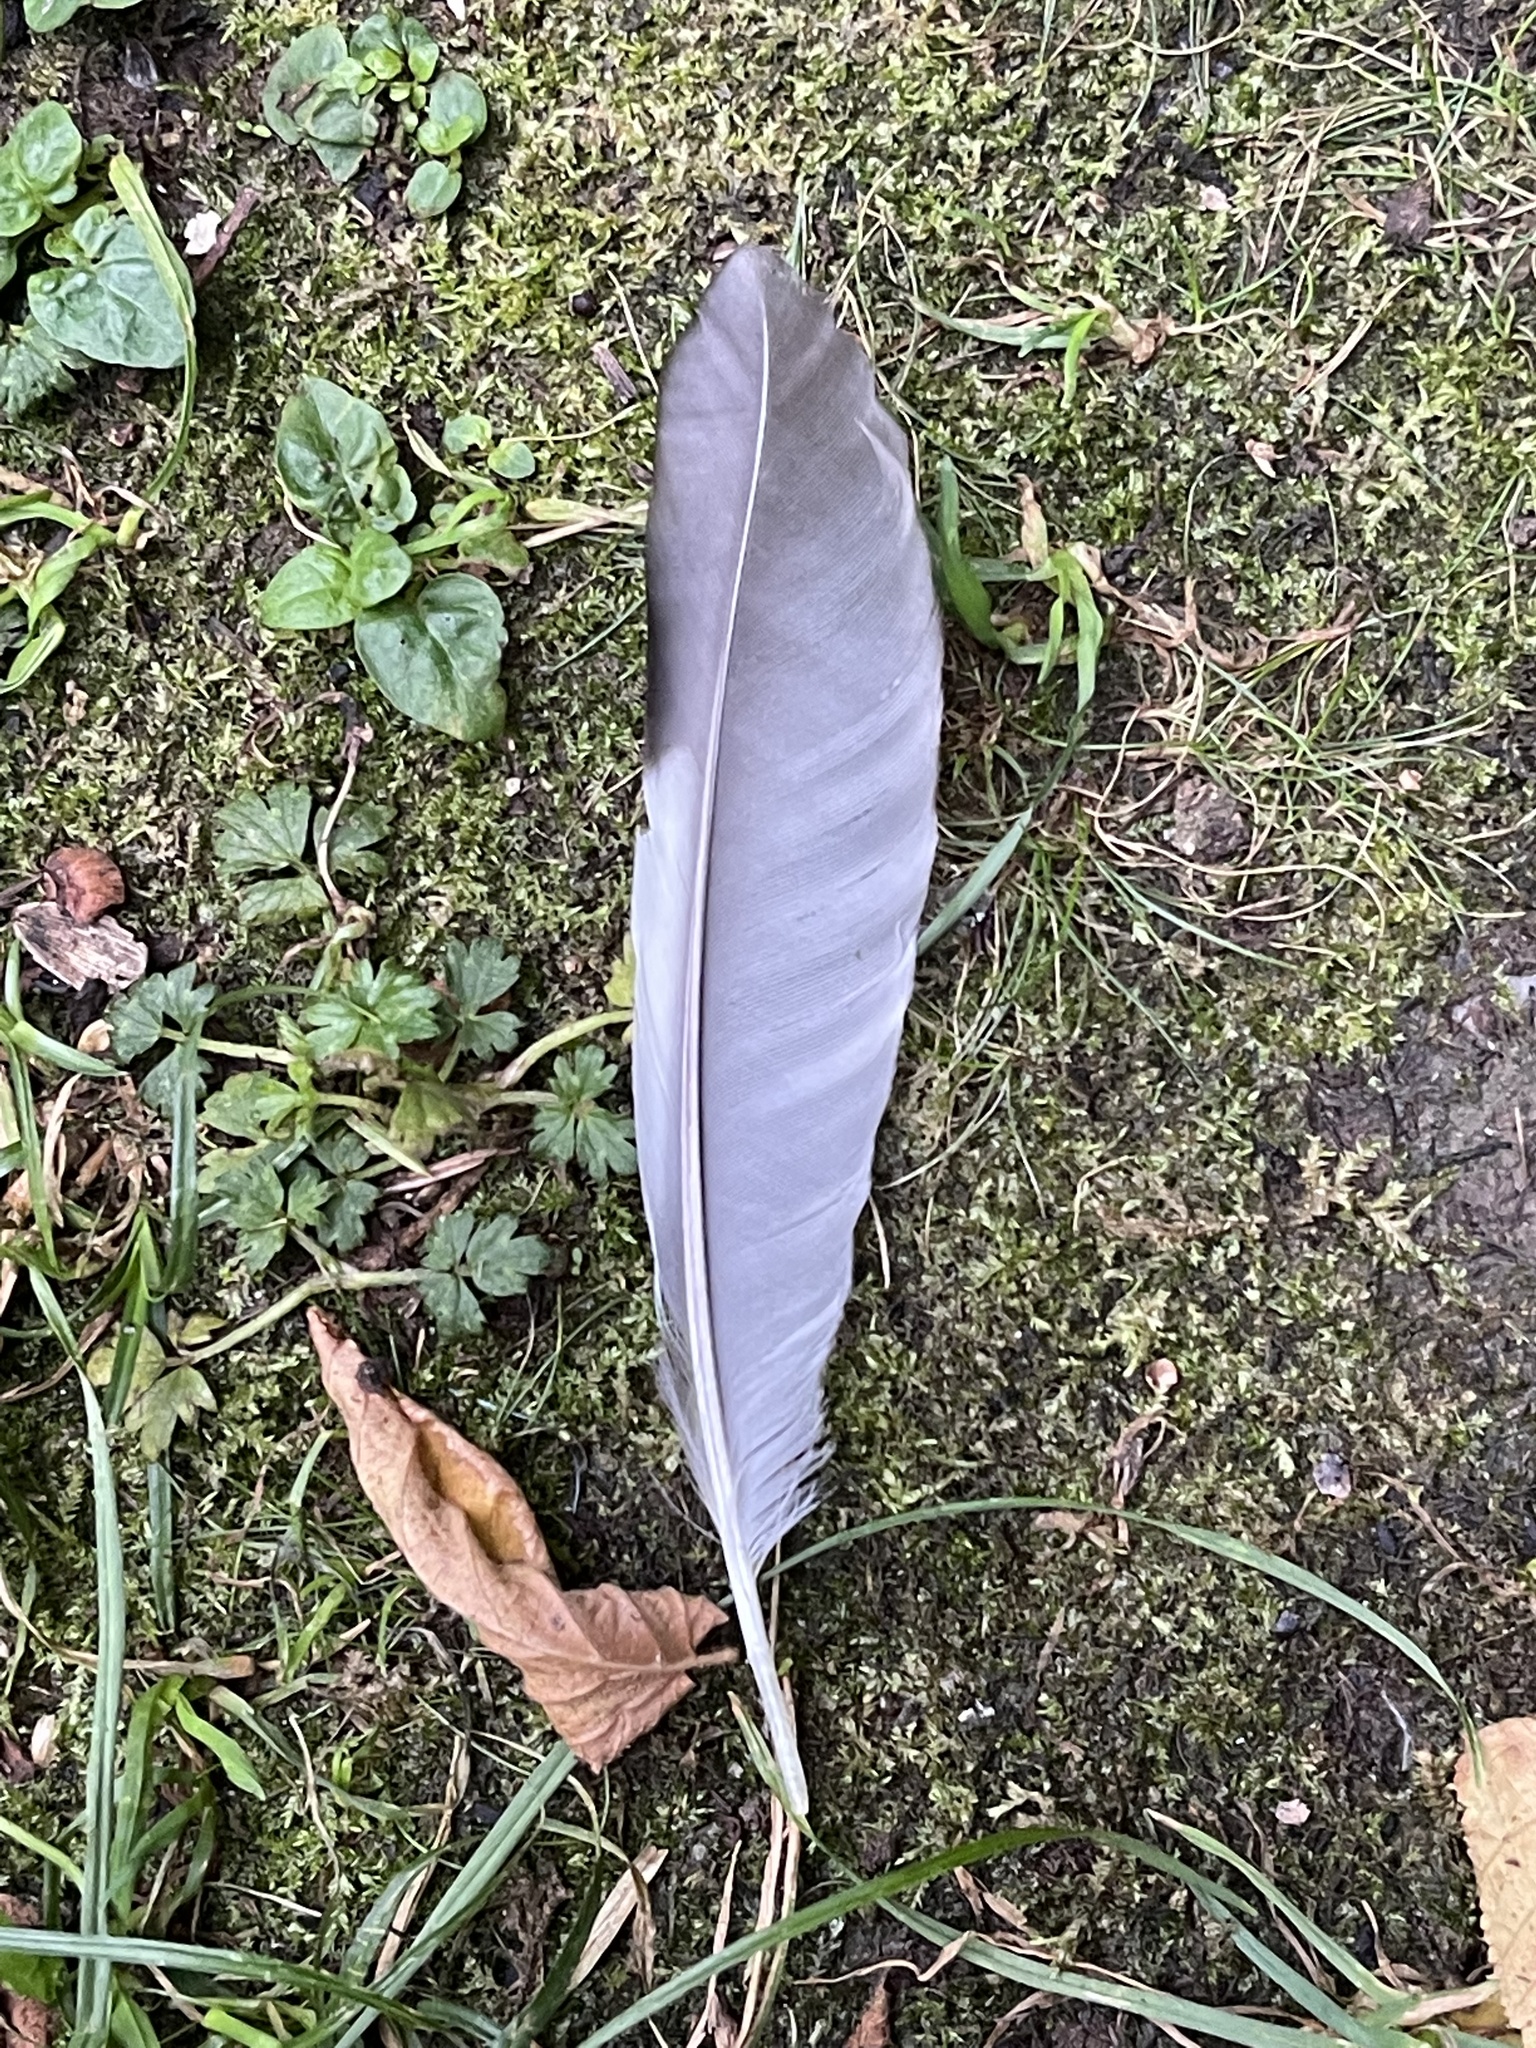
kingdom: Animalia
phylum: Chordata
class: Aves
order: Passeriformes
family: Corvidae
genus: Garrulus
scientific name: Garrulus glandarius
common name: Eurasian jay
